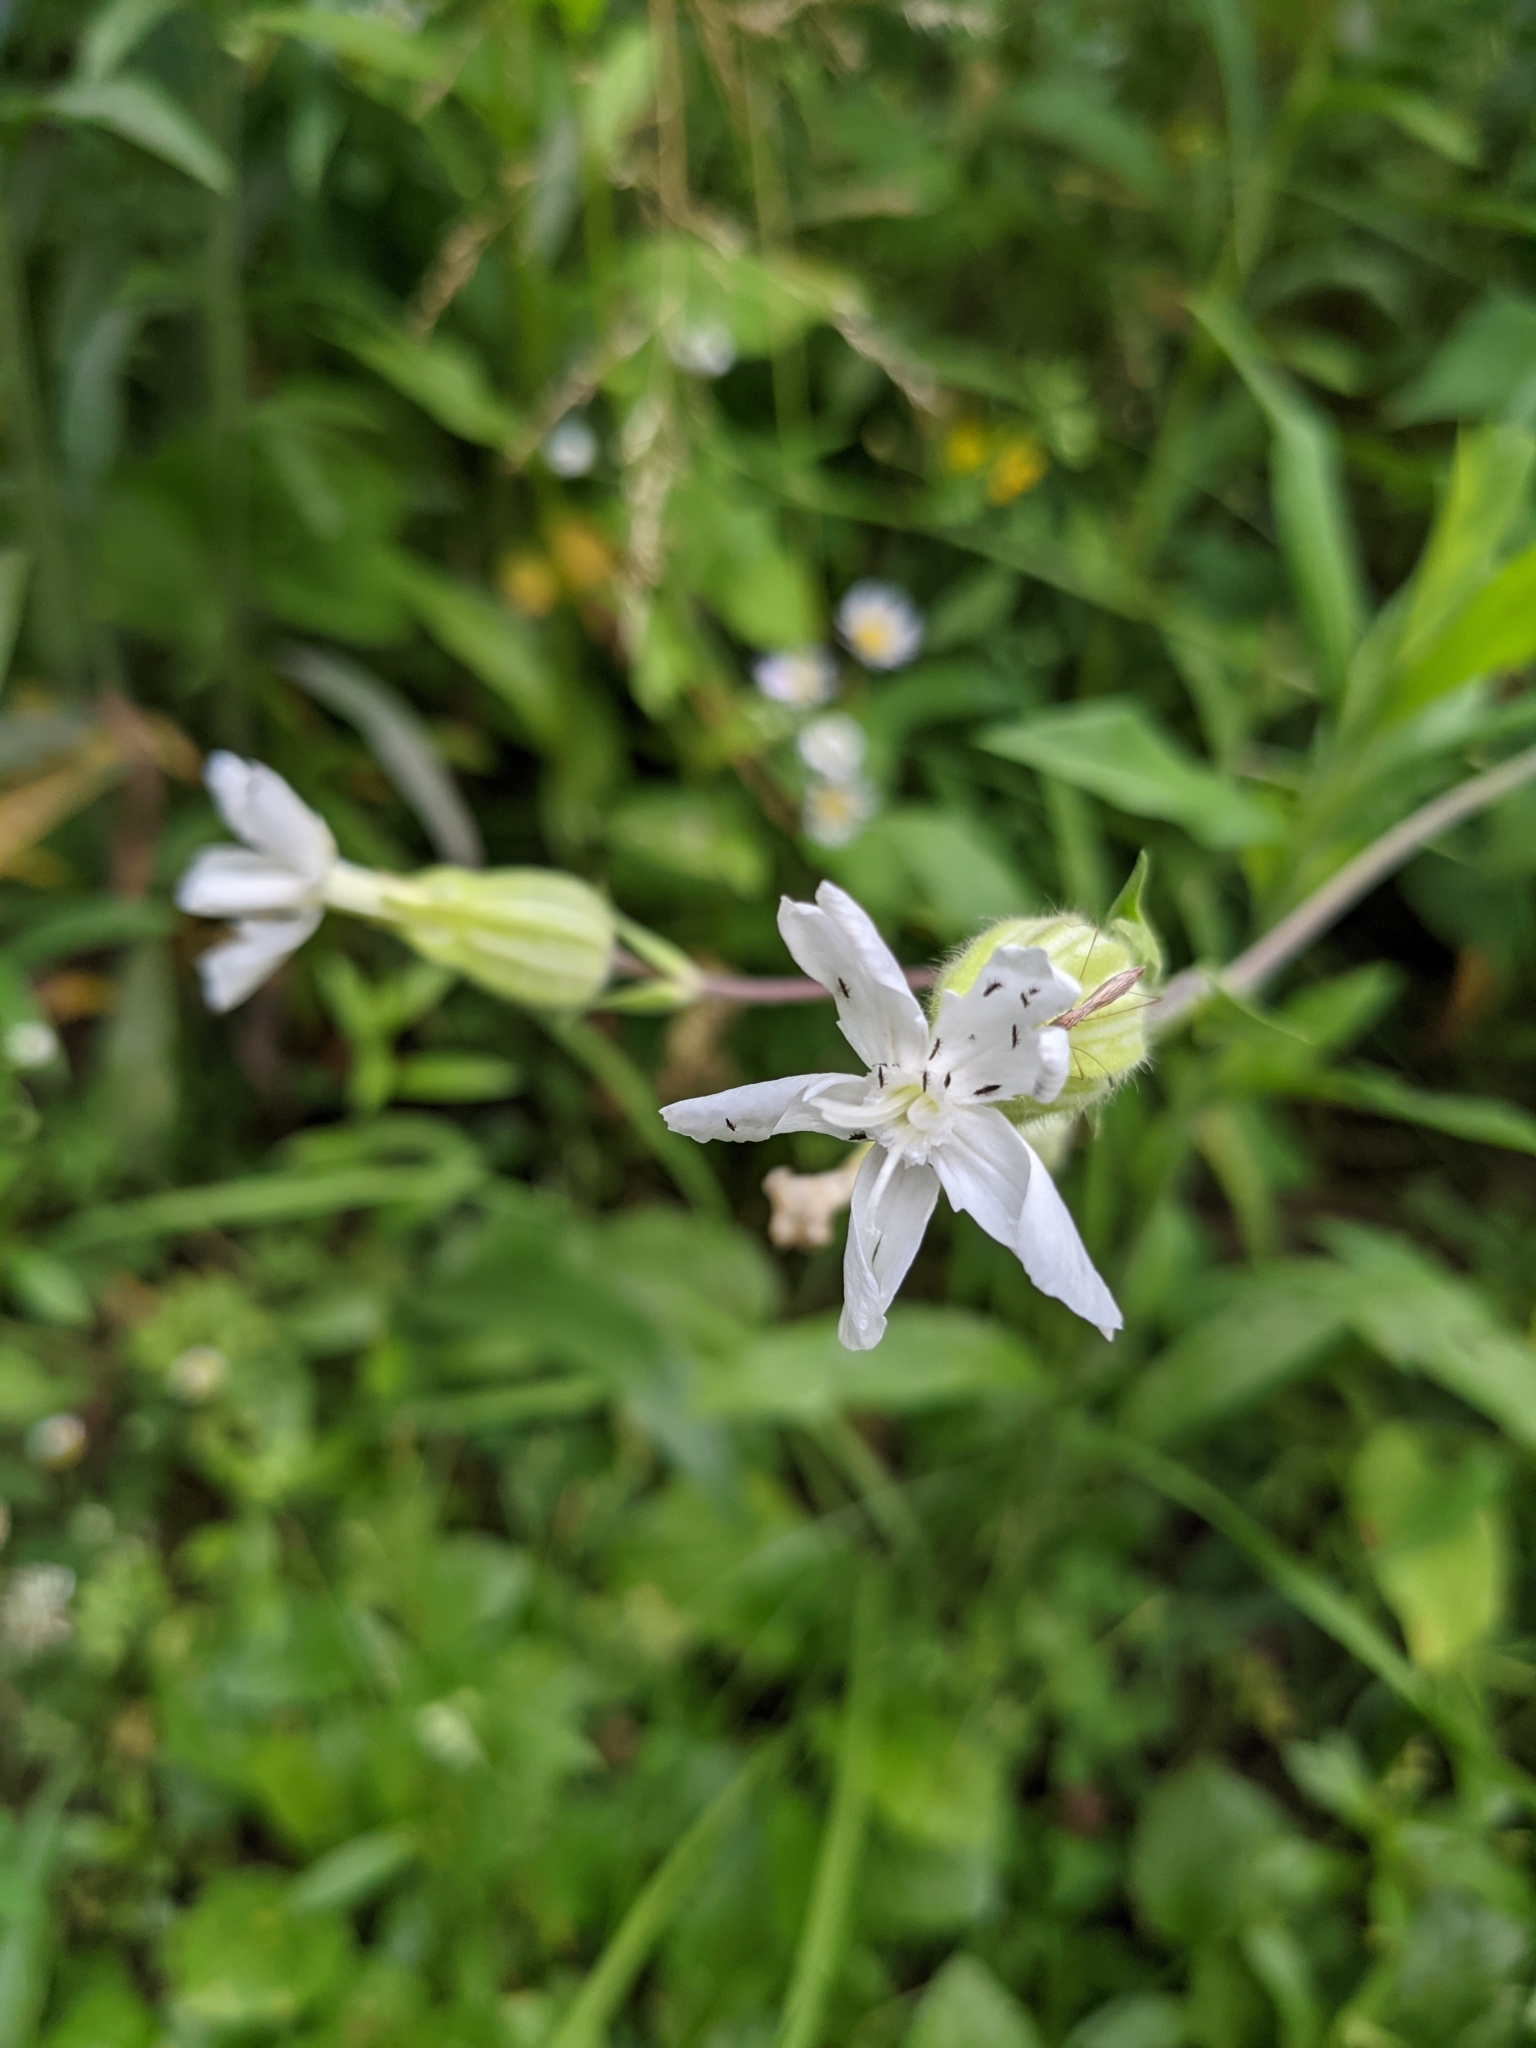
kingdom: Plantae
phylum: Tracheophyta
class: Magnoliopsida
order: Caryophyllales
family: Caryophyllaceae
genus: Silene
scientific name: Silene latifolia
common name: White campion
